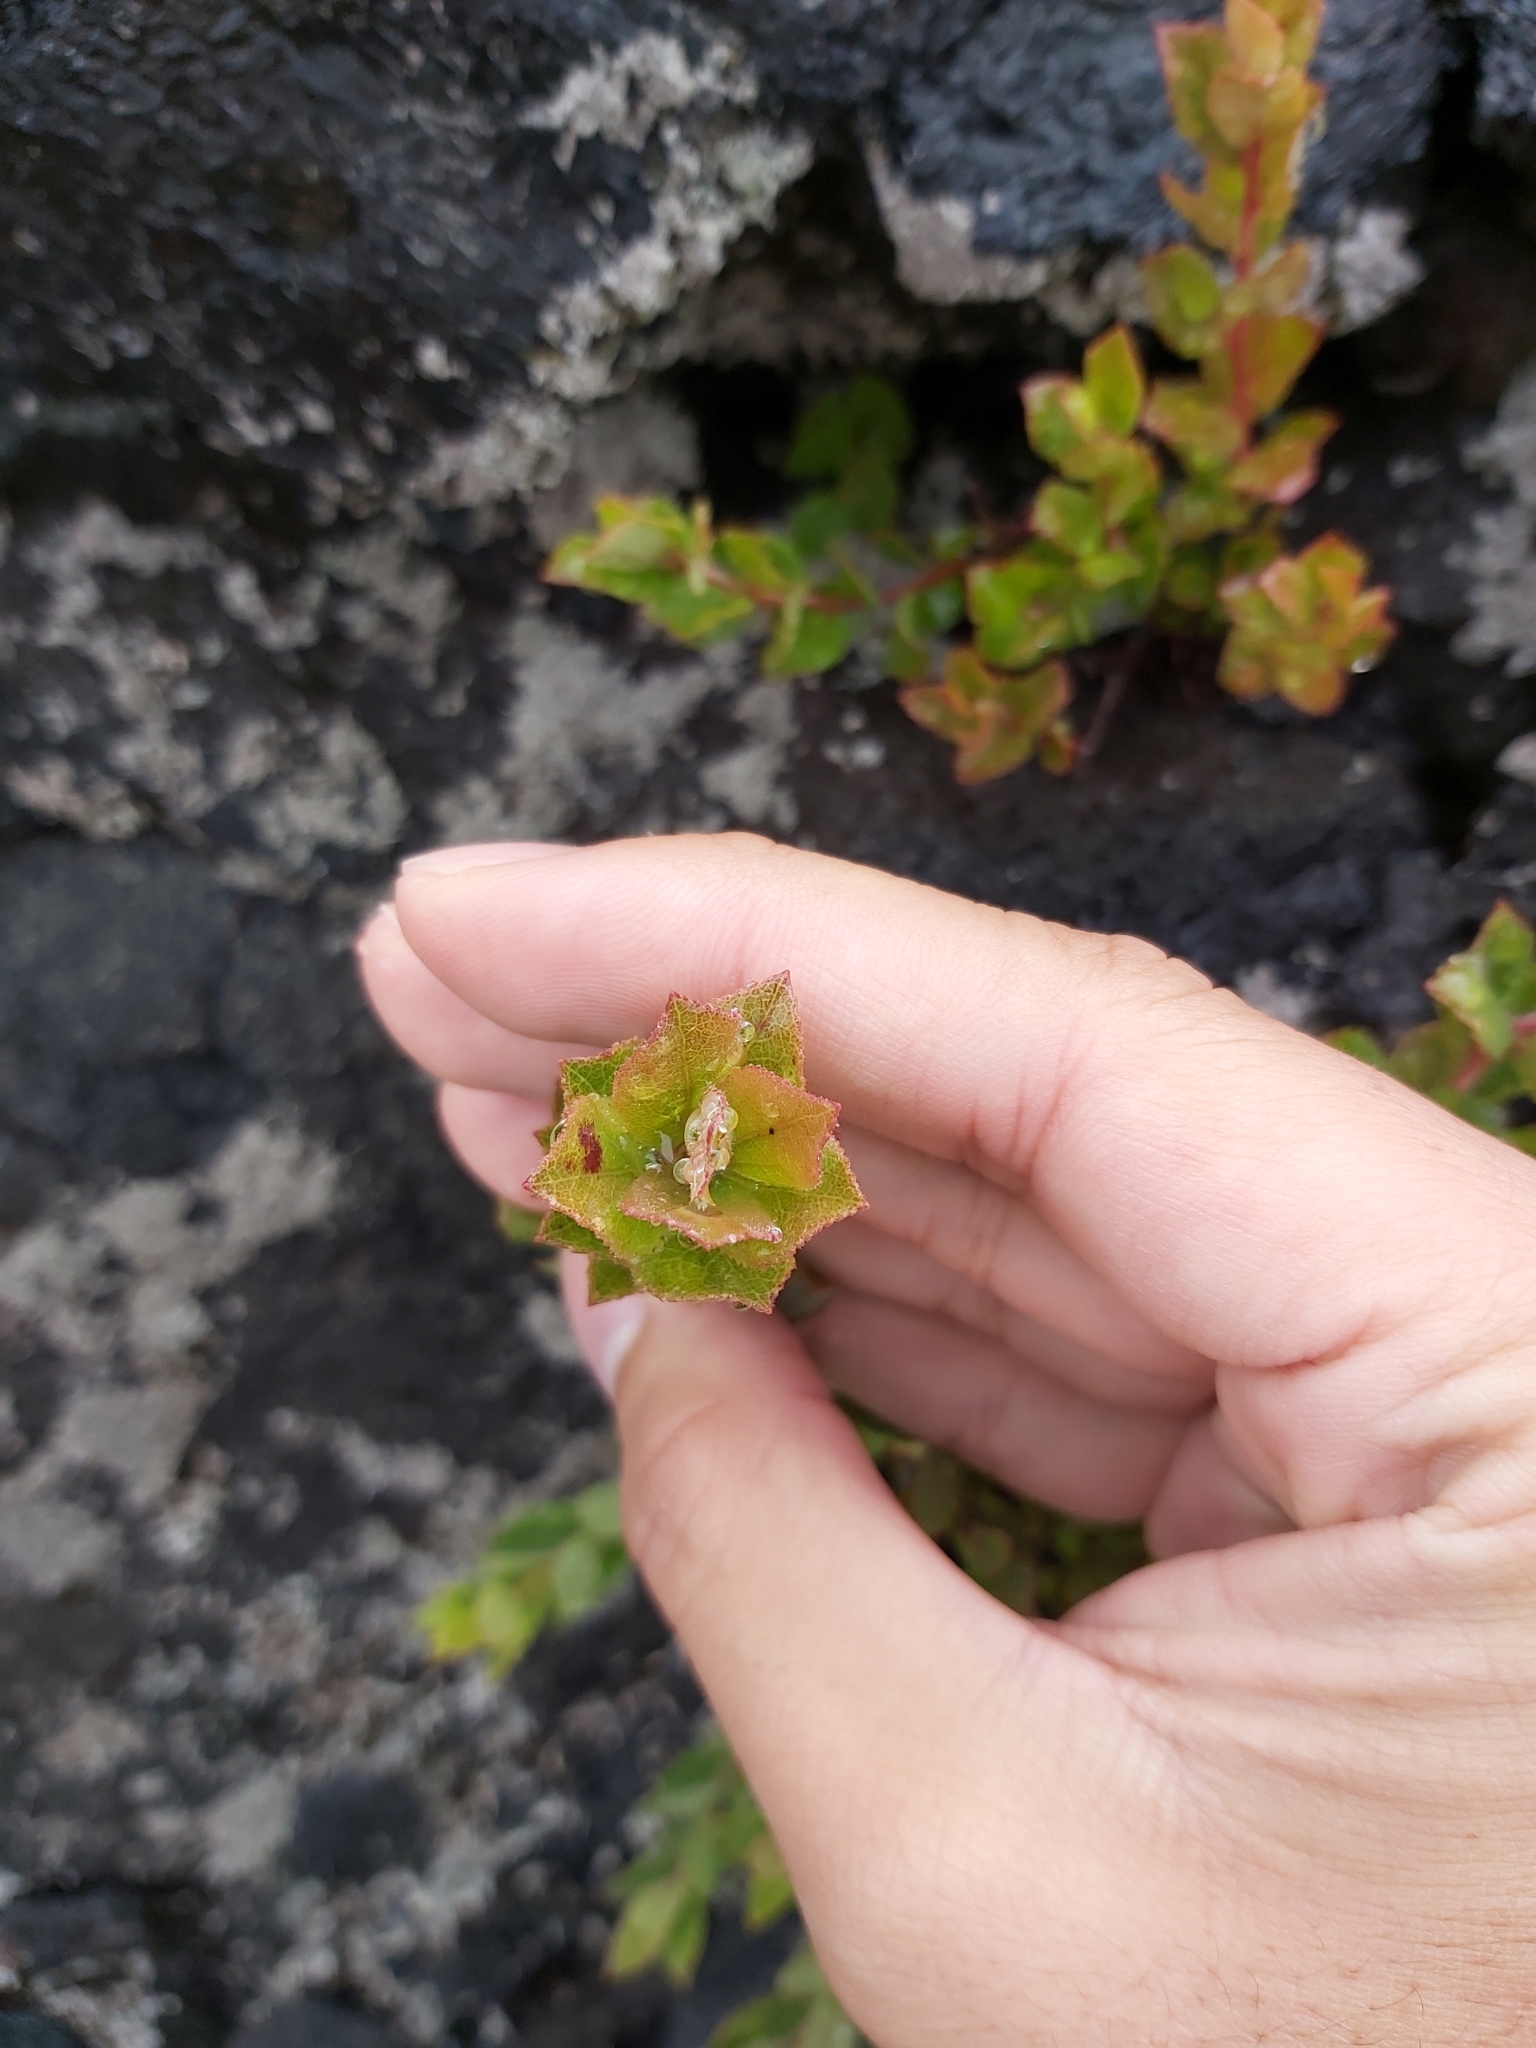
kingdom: Plantae
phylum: Tracheophyta
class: Magnoliopsida
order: Ericales
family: Ericaceae
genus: Vaccinium
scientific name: Vaccinium reticulatum
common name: Ohelo
